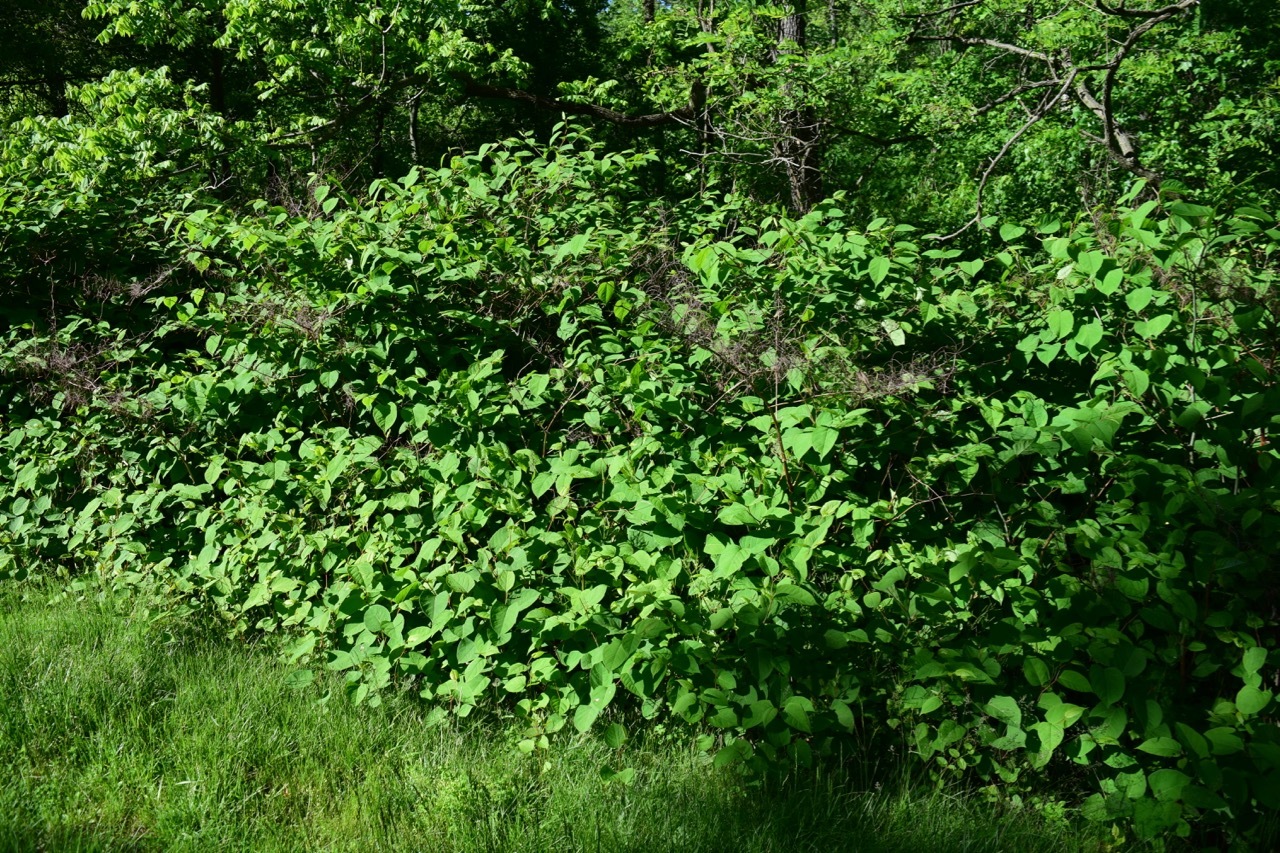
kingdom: Plantae
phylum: Tracheophyta
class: Magnoliopsida
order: Caryophyllales
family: Polygonaceae
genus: Reynoutria
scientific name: Reynoutria japonica
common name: Japanese knotweed
